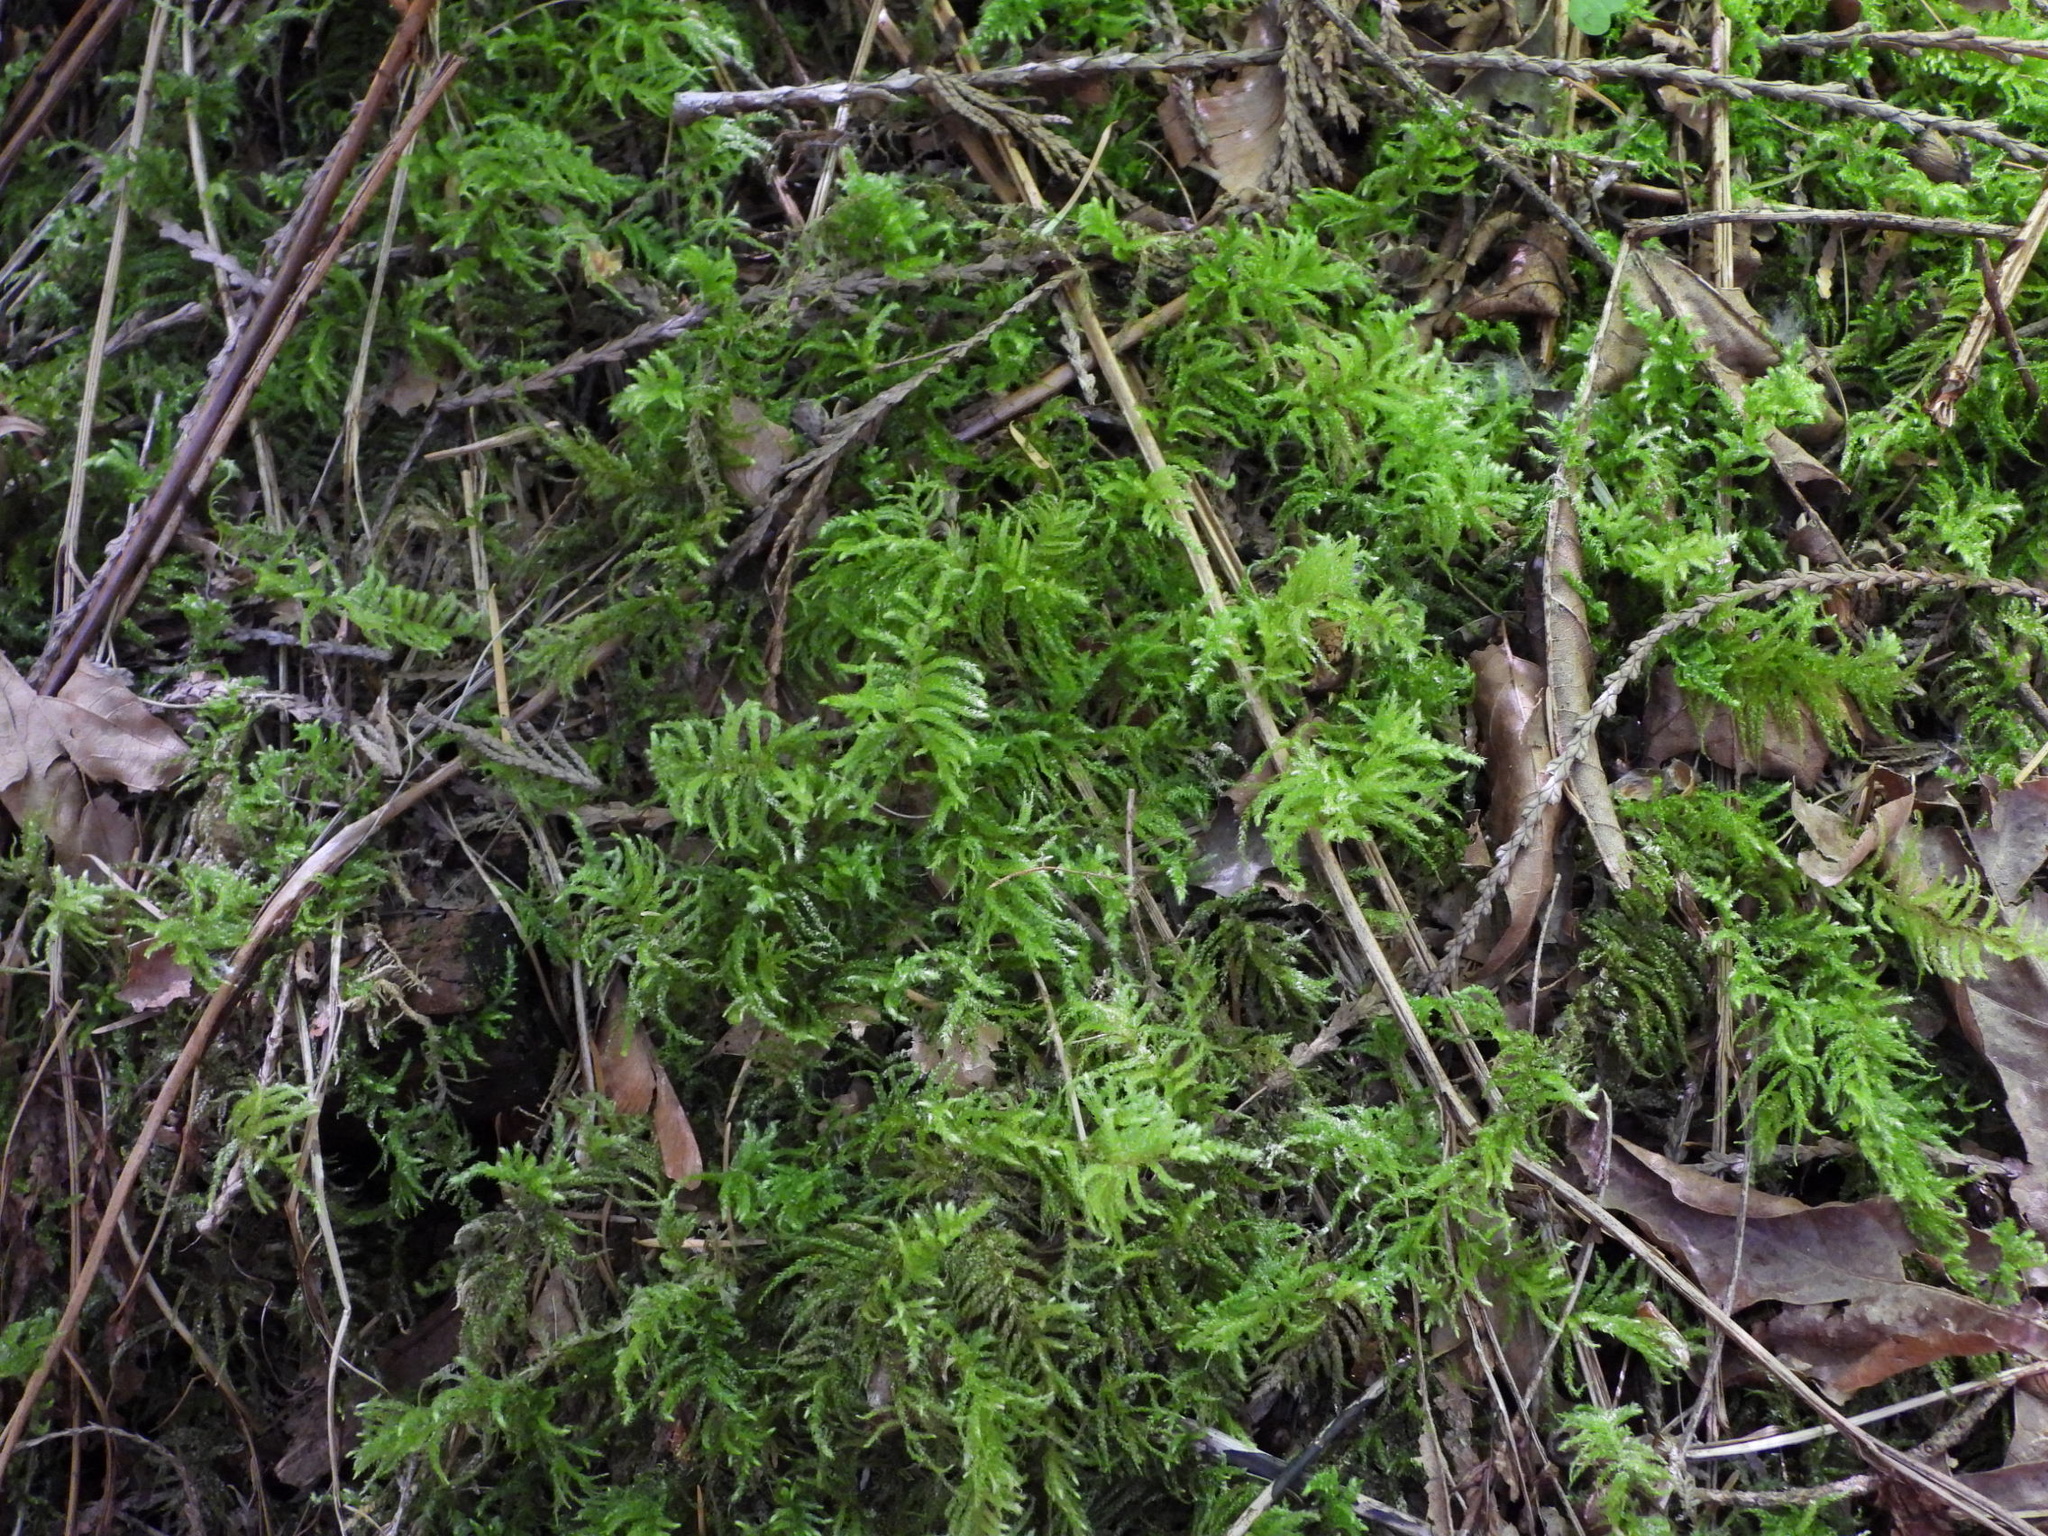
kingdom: Plantae
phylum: Bryophyta
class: Bryopsida
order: Hypnales
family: Brachytheciaceae
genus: Kindbergia
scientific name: Kindbergia oregana
